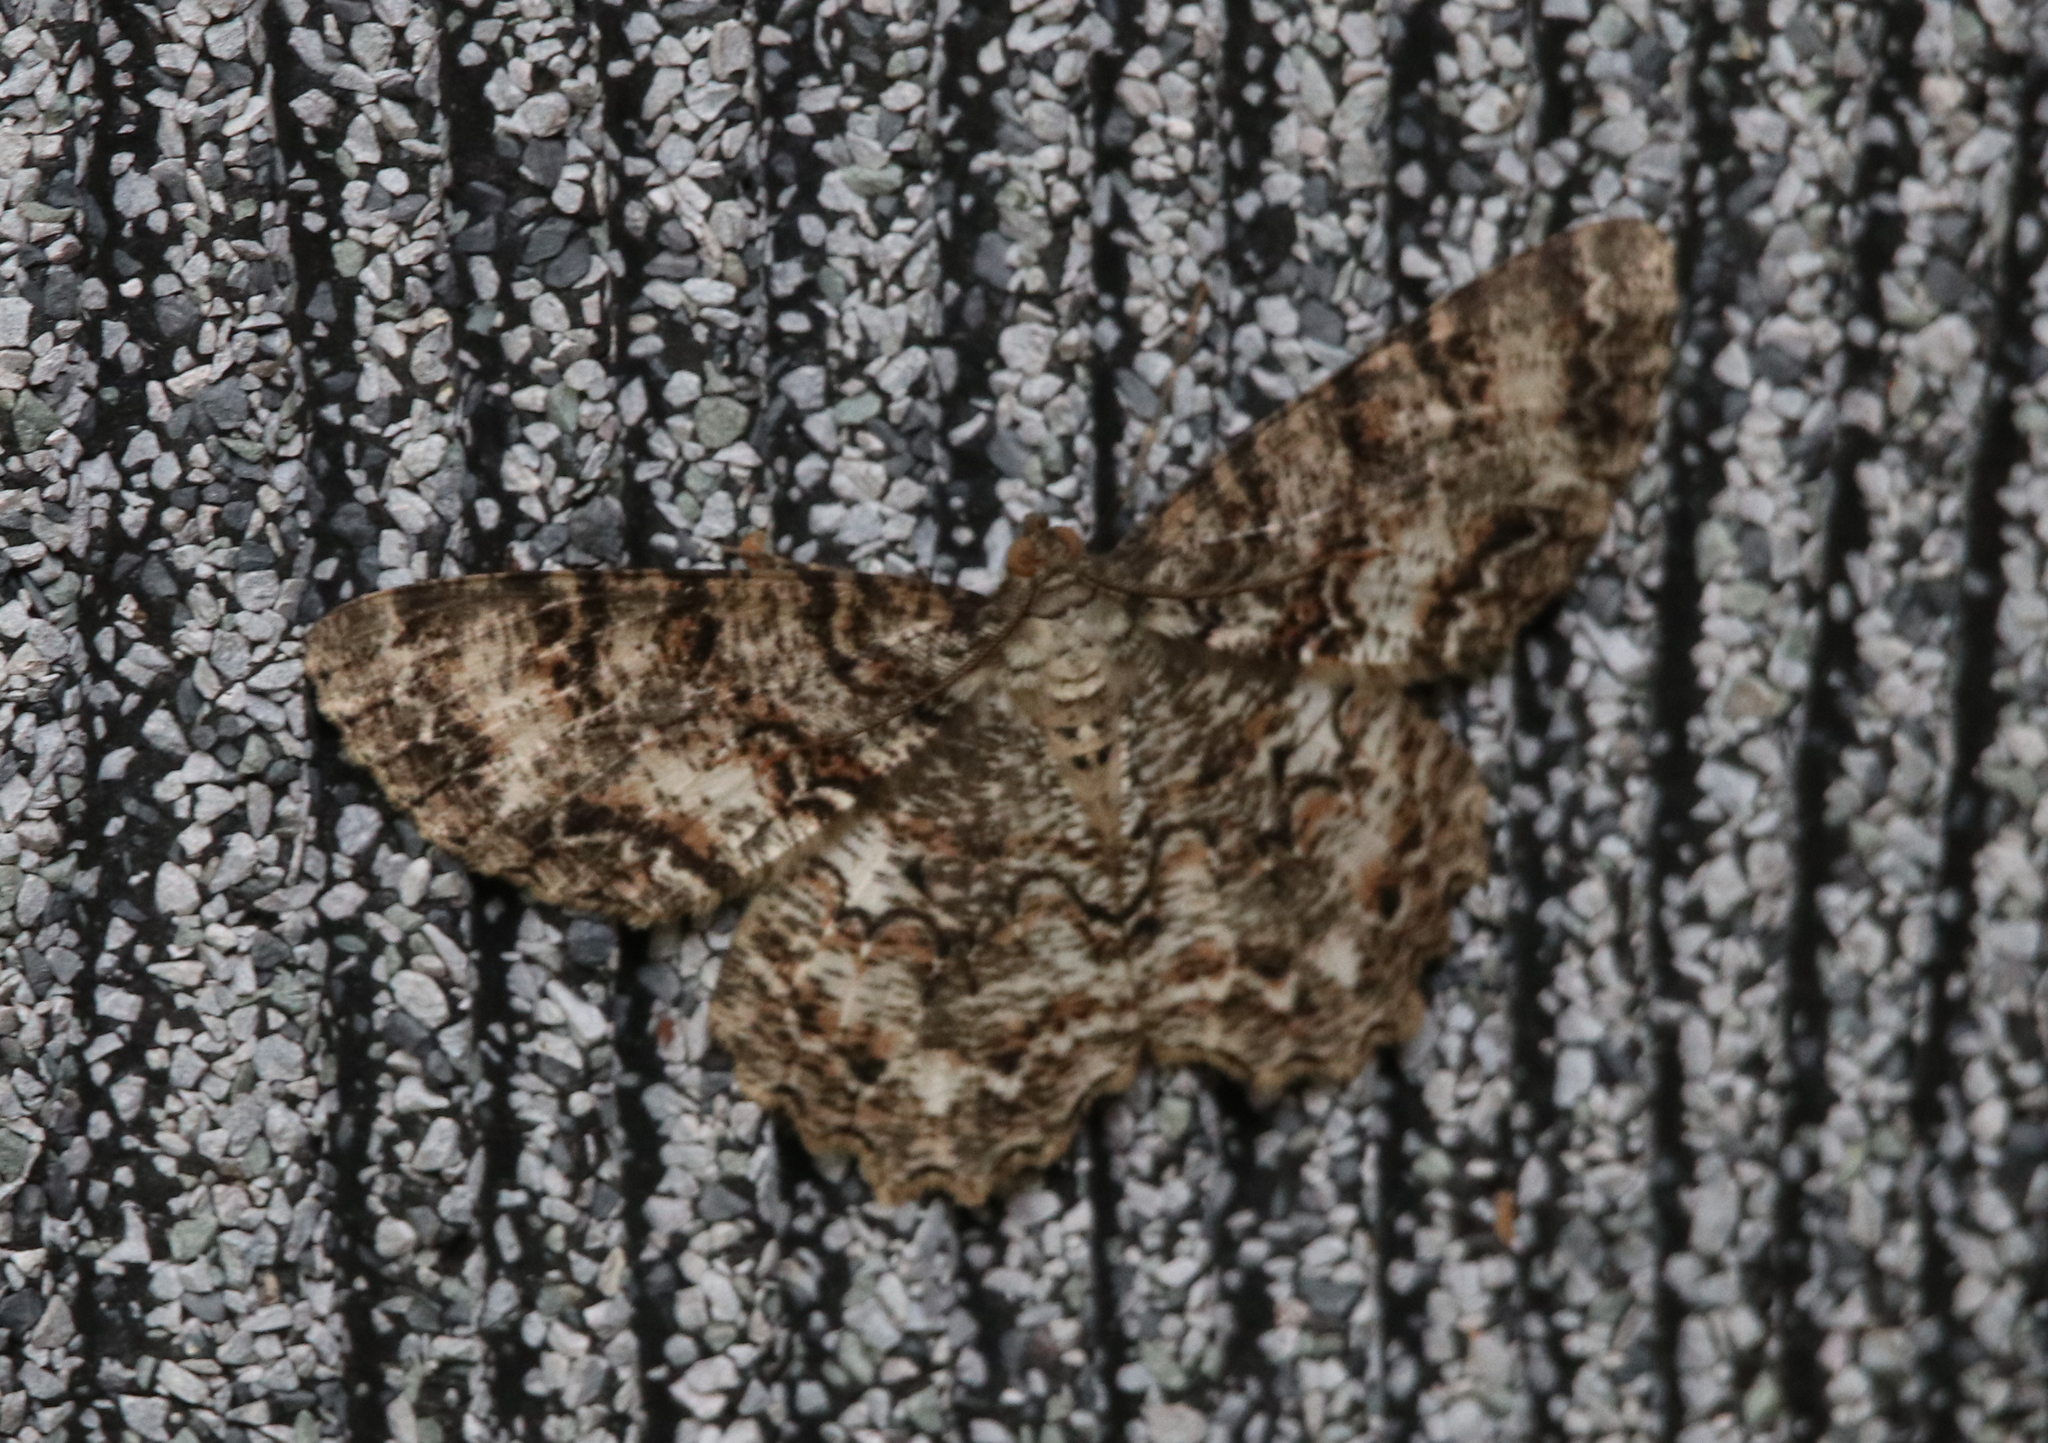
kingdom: Animalia
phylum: Arthropoda
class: Insecta
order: Lepidoptera
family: Geometridae
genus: Epimecis
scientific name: Epimecis hortaria
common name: Tulip-tree beauty
